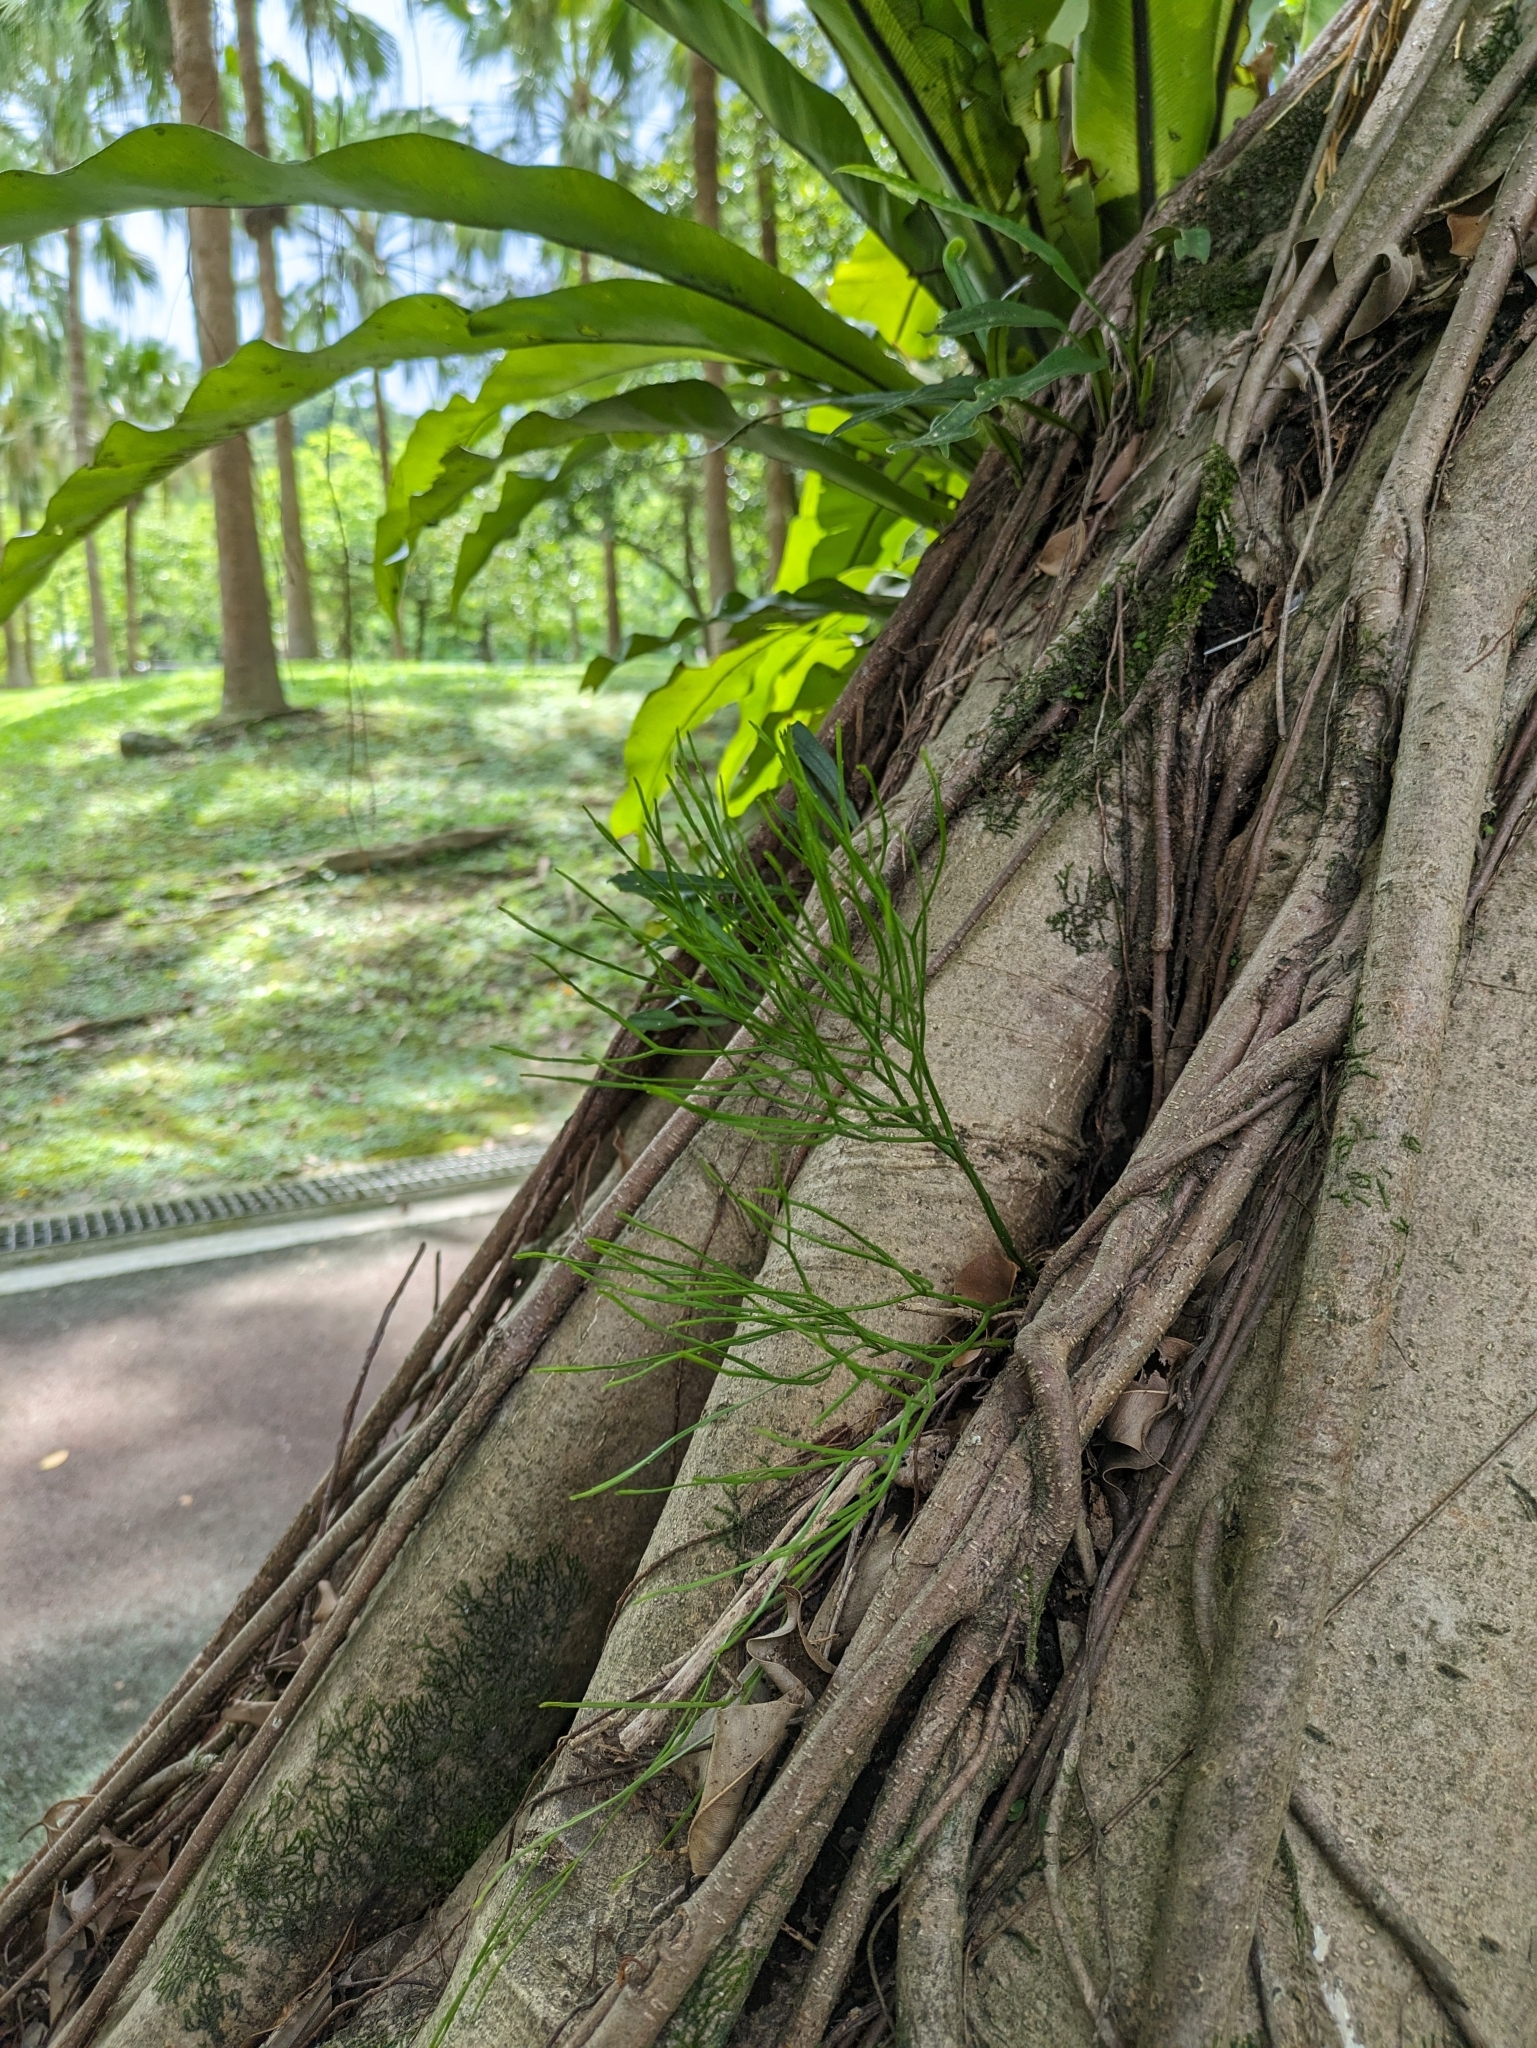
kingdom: Plantae
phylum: Tracheophyta
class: Polypodiopsida
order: Psilotales
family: Psilotaceae
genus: Psilotum
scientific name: Psilotum nudum
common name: Skeleton fork fern
